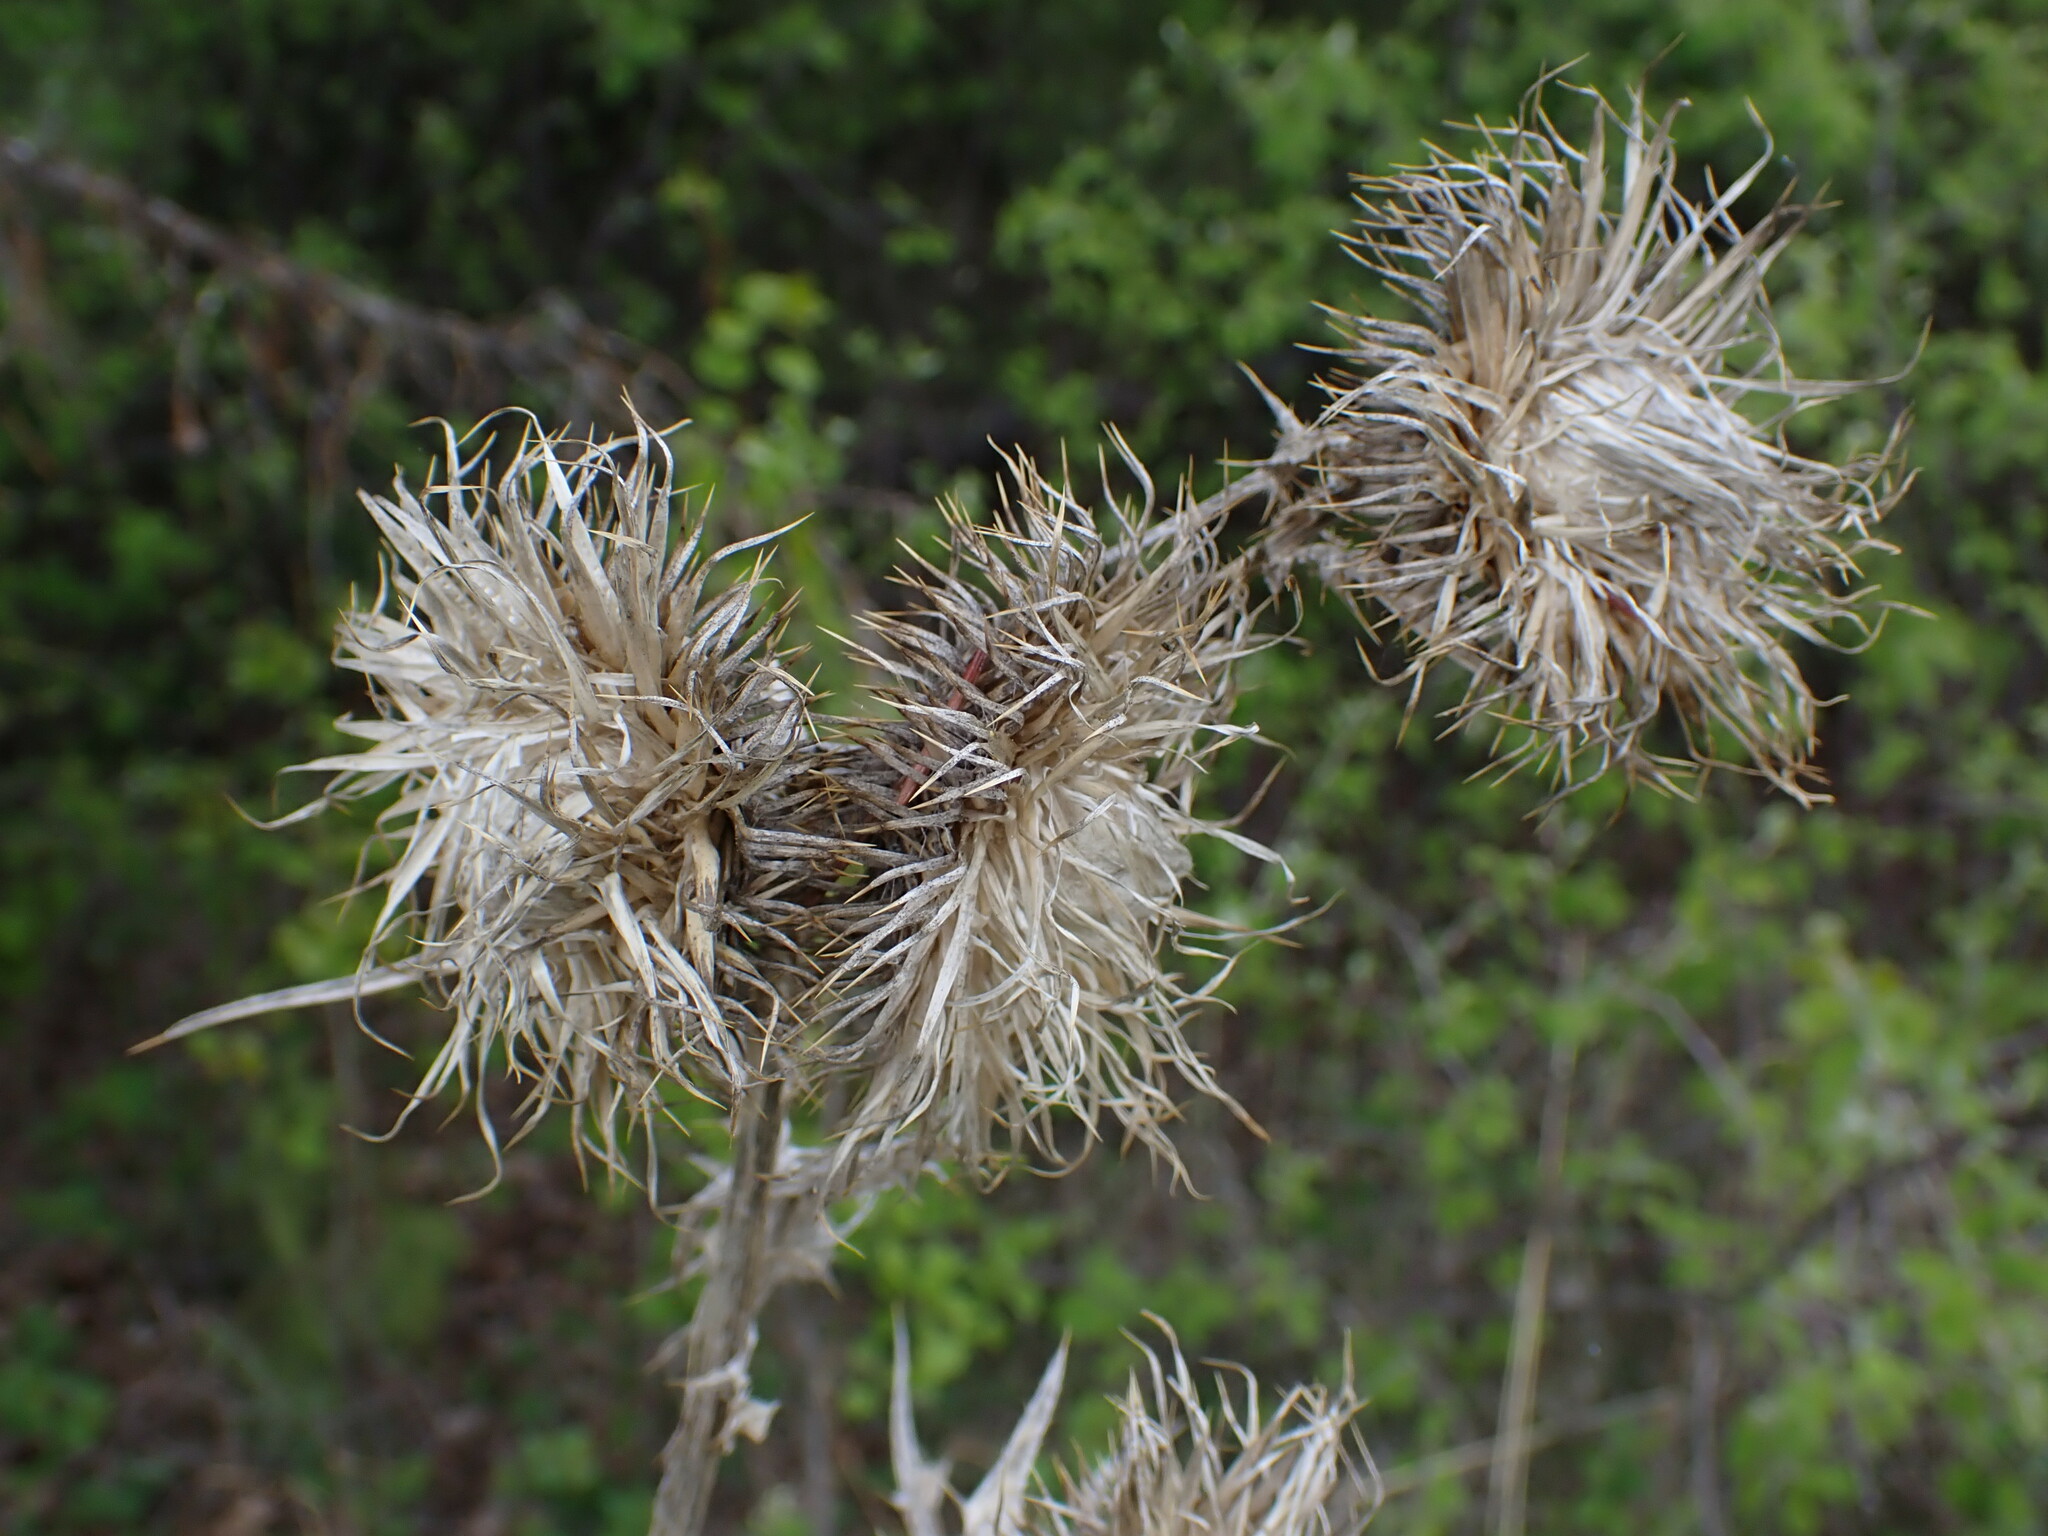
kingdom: Plantae
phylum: Tracheophyta
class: Magnoliopsida
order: Asterales
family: Asteraceae
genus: Cirsium
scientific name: Cirsium vulgare
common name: Bull thistle
